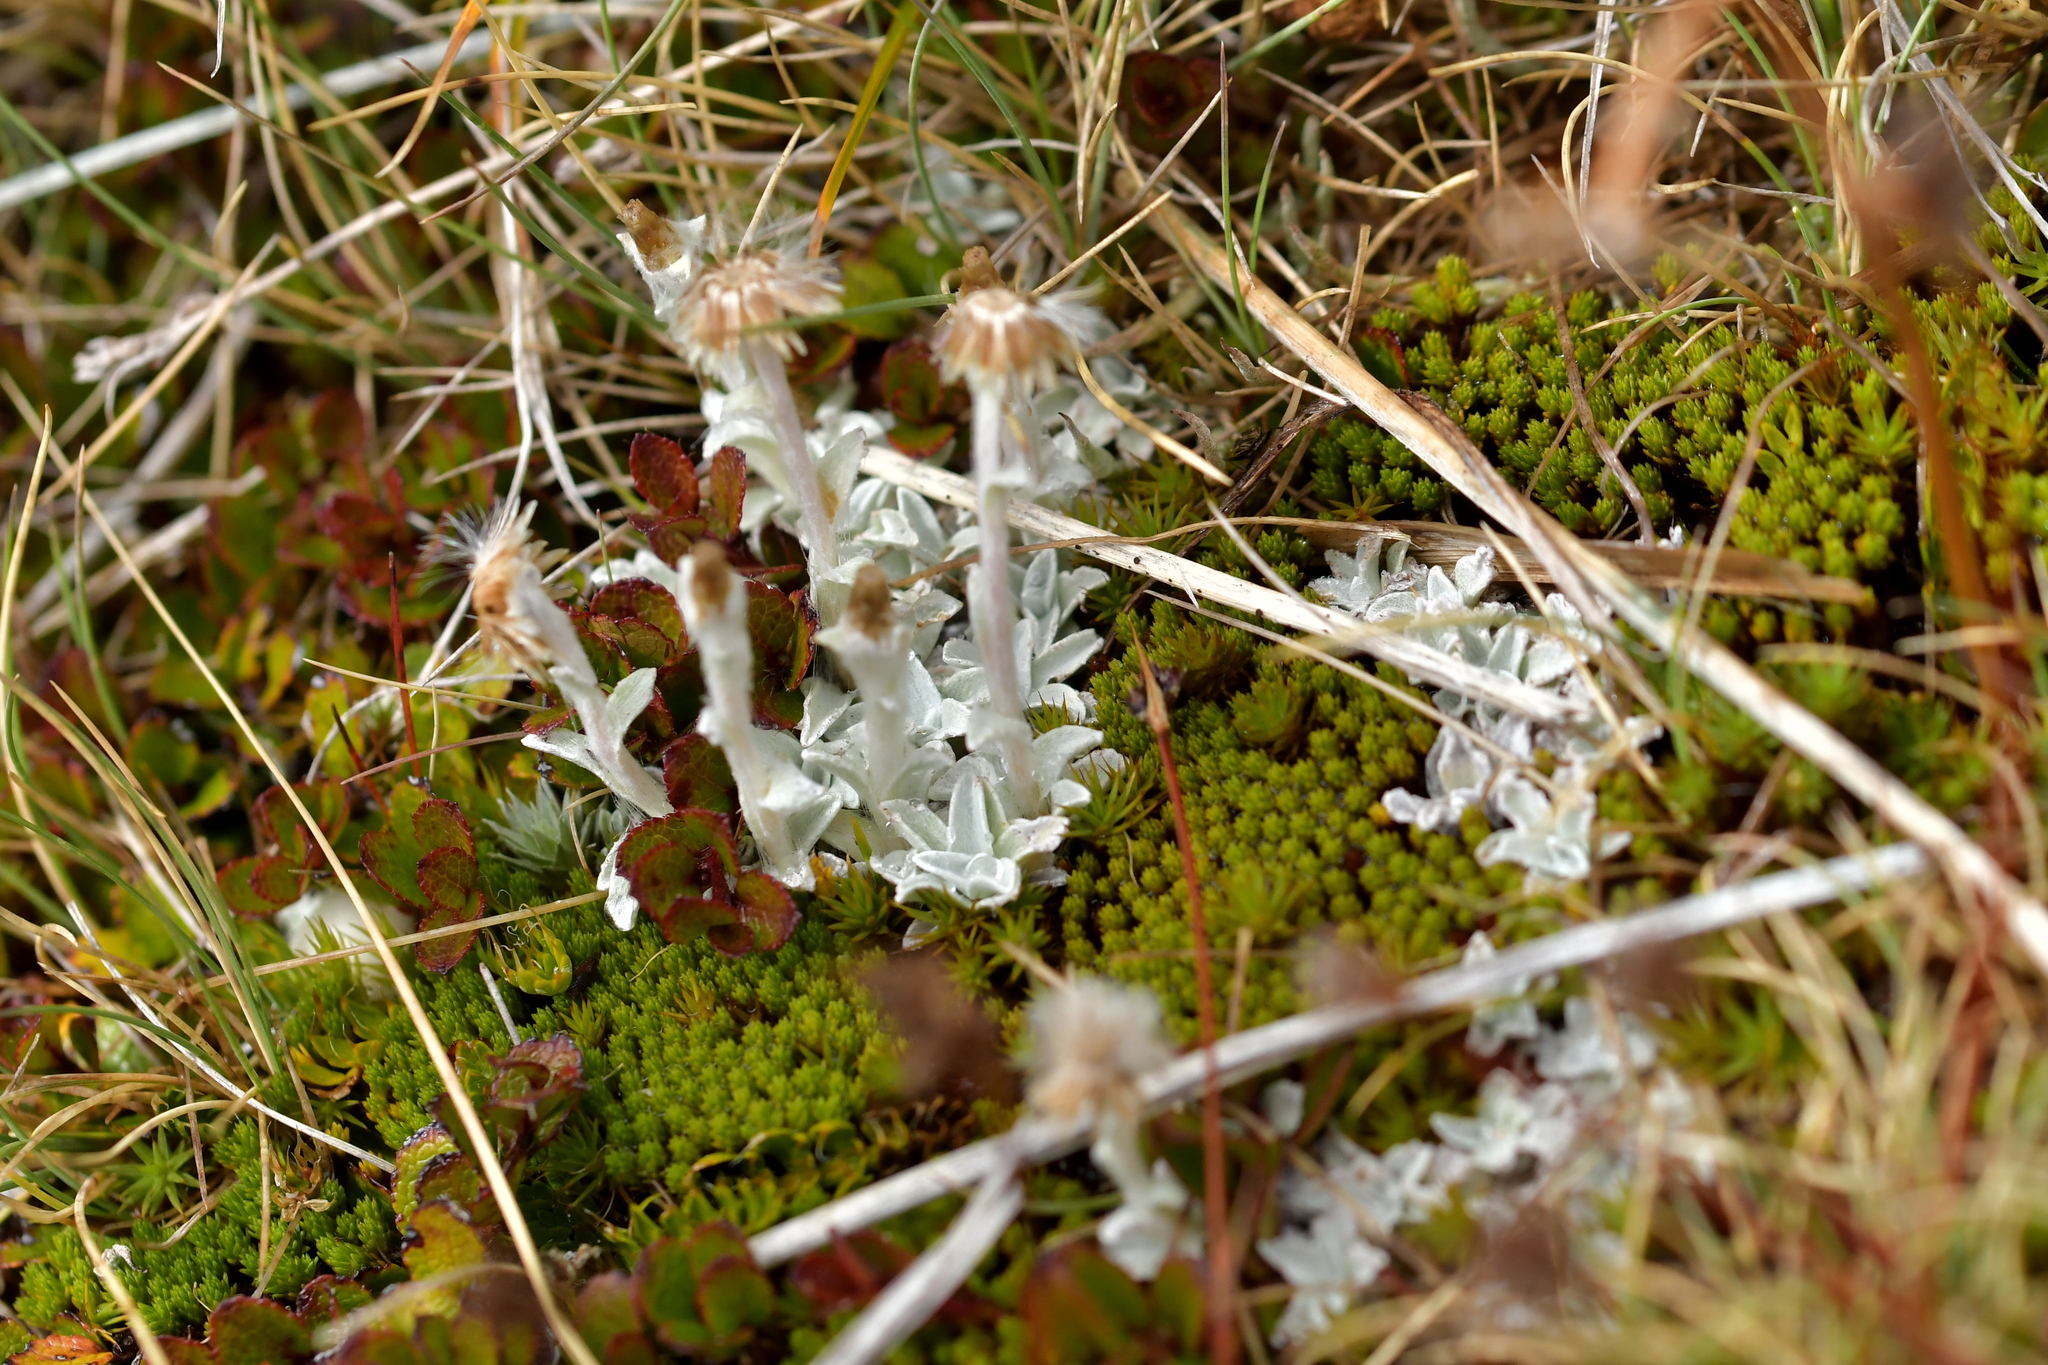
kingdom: Plantae
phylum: Tracheophyta
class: Magnoliopsida
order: Asterales
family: Asteraceae
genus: Argyrotegium
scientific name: Argyrotegium mackayi
